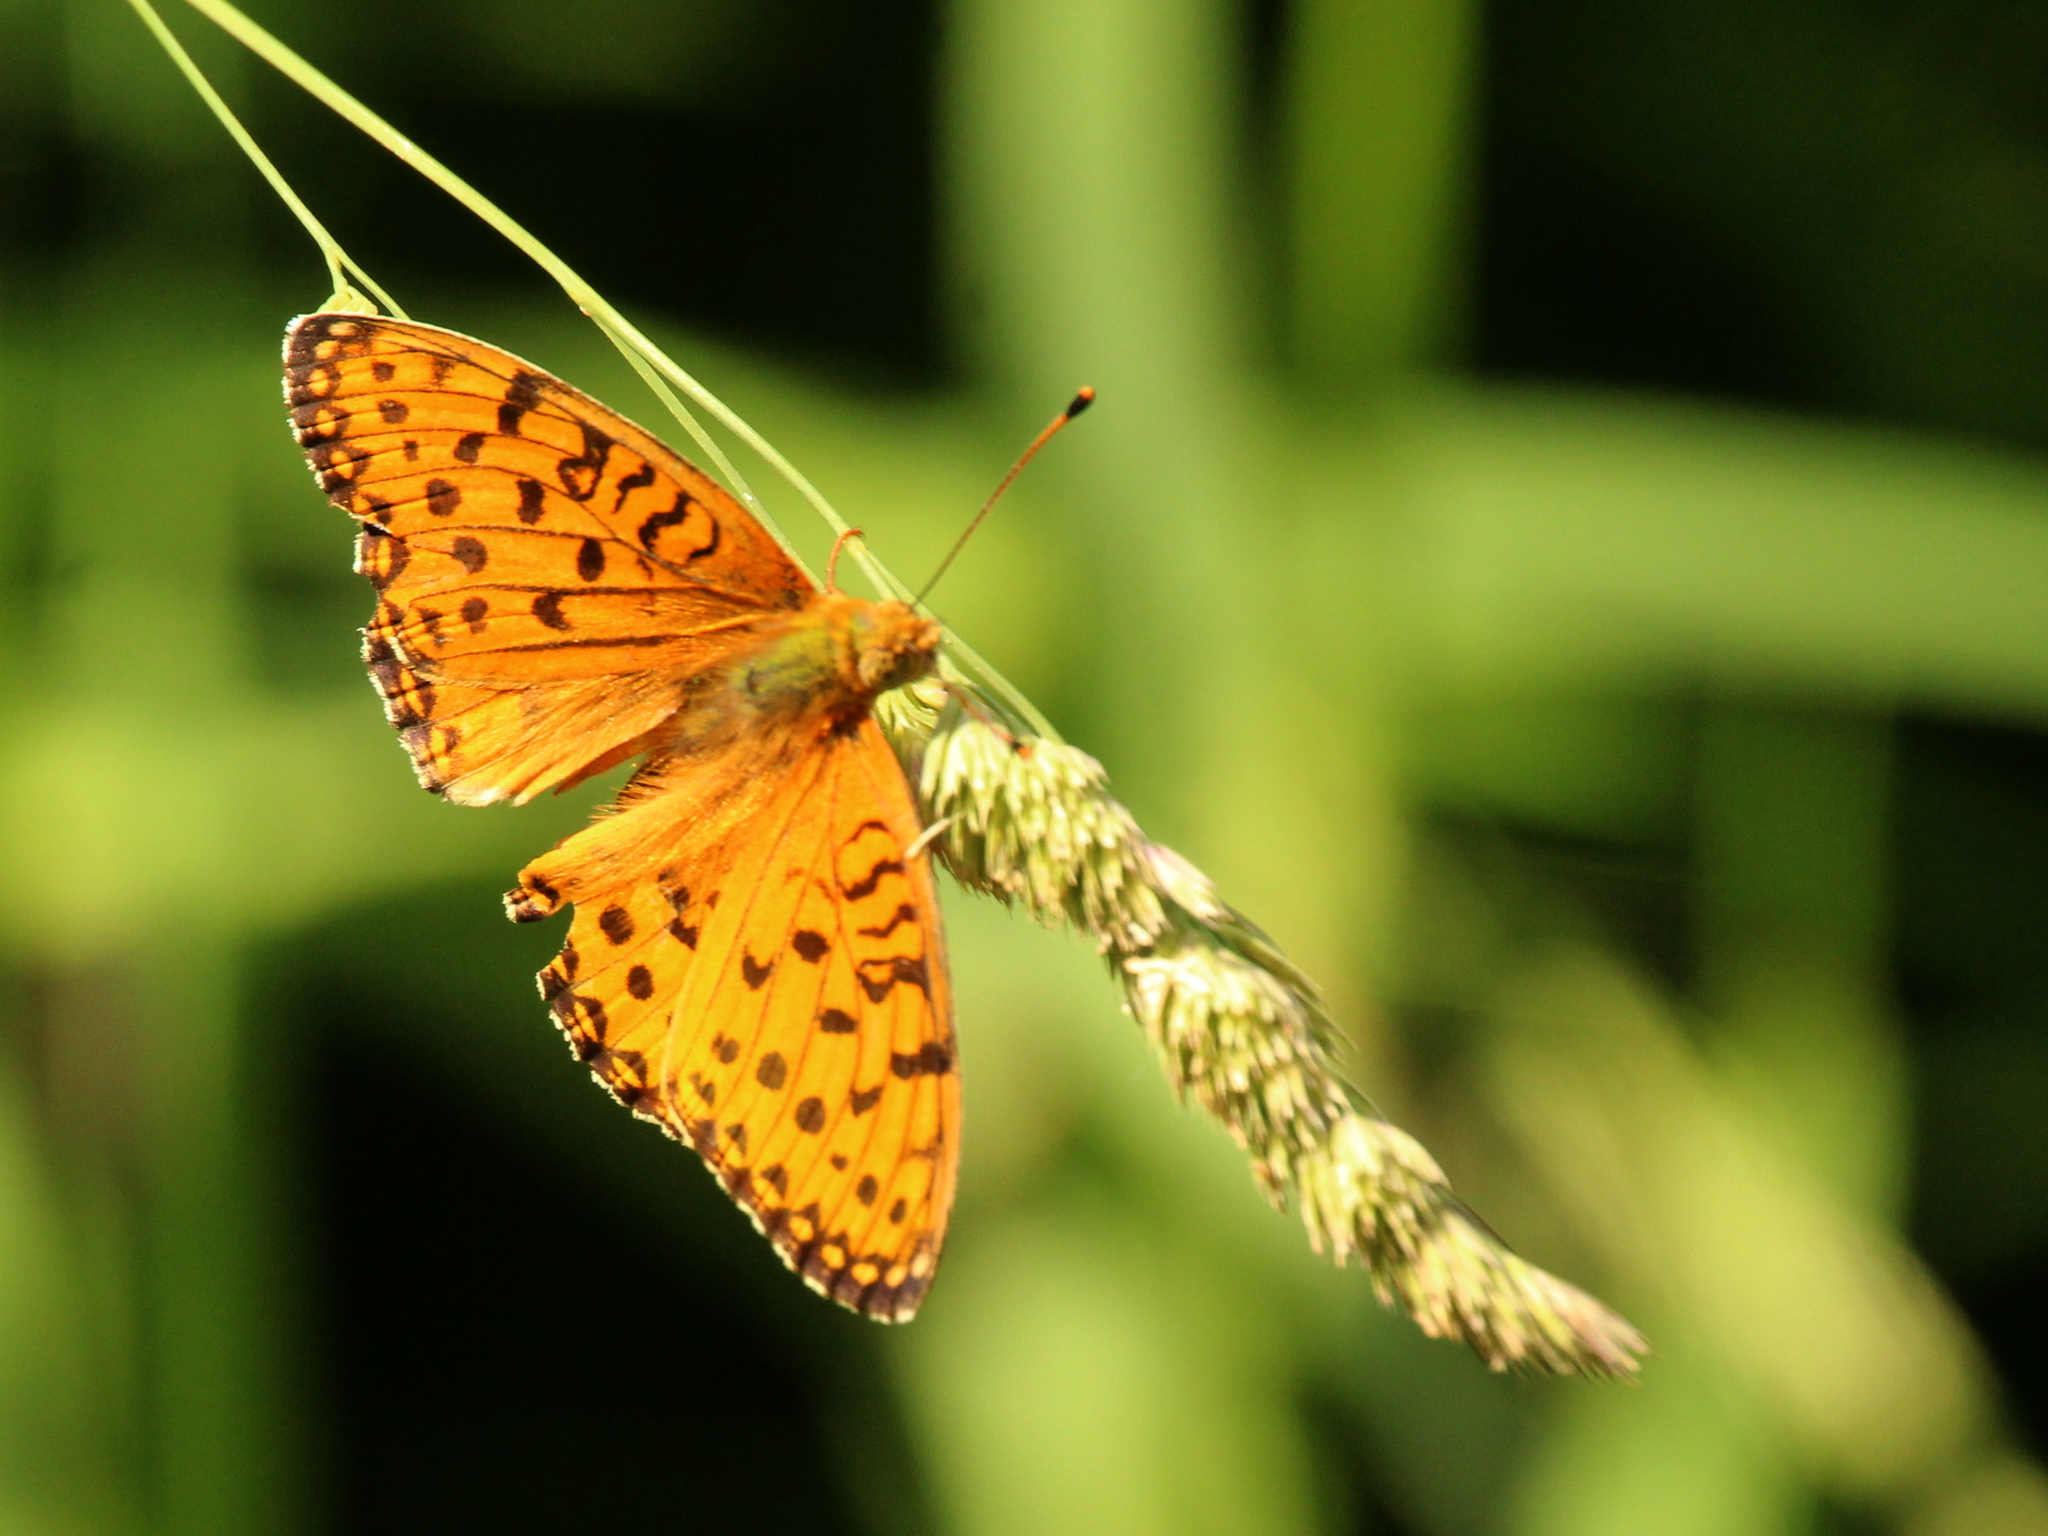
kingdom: Animalia
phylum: Arthropoda
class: Insecta
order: Lepidoptera
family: Nymphalidae
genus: Speyeria
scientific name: Speyeria aglaja
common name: Dark green fritillary
